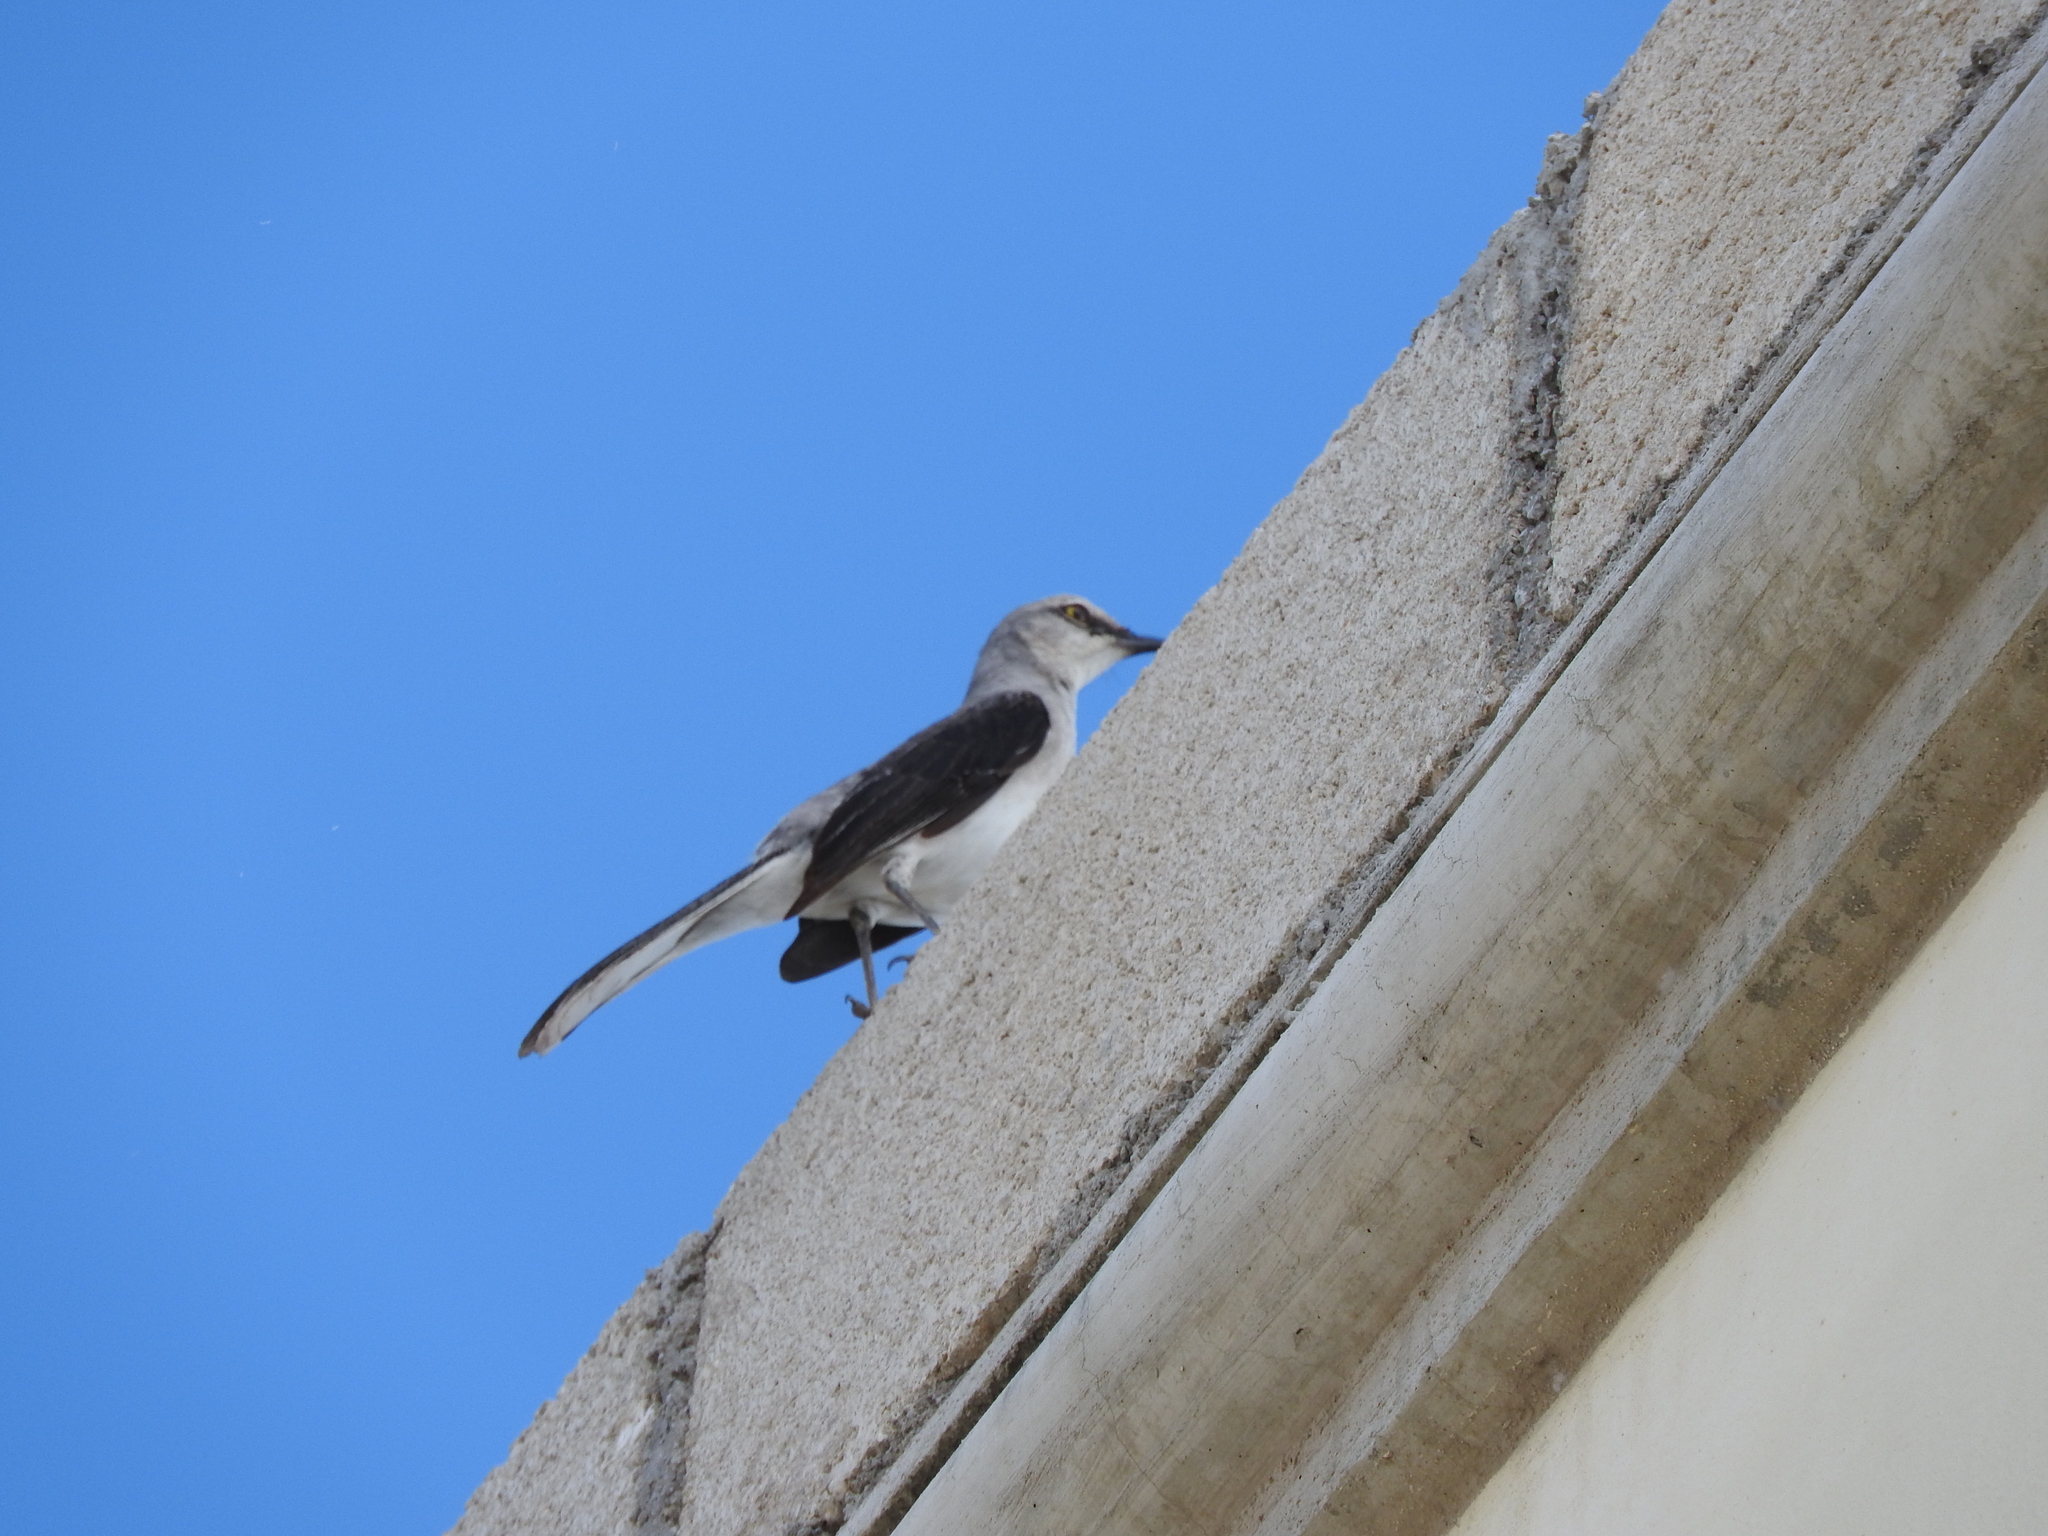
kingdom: Animalia
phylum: Chordata
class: Aves
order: Passeriformes
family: Mimidae
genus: Mimus
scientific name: Mimus gilvus
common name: Tropical mockingbird
